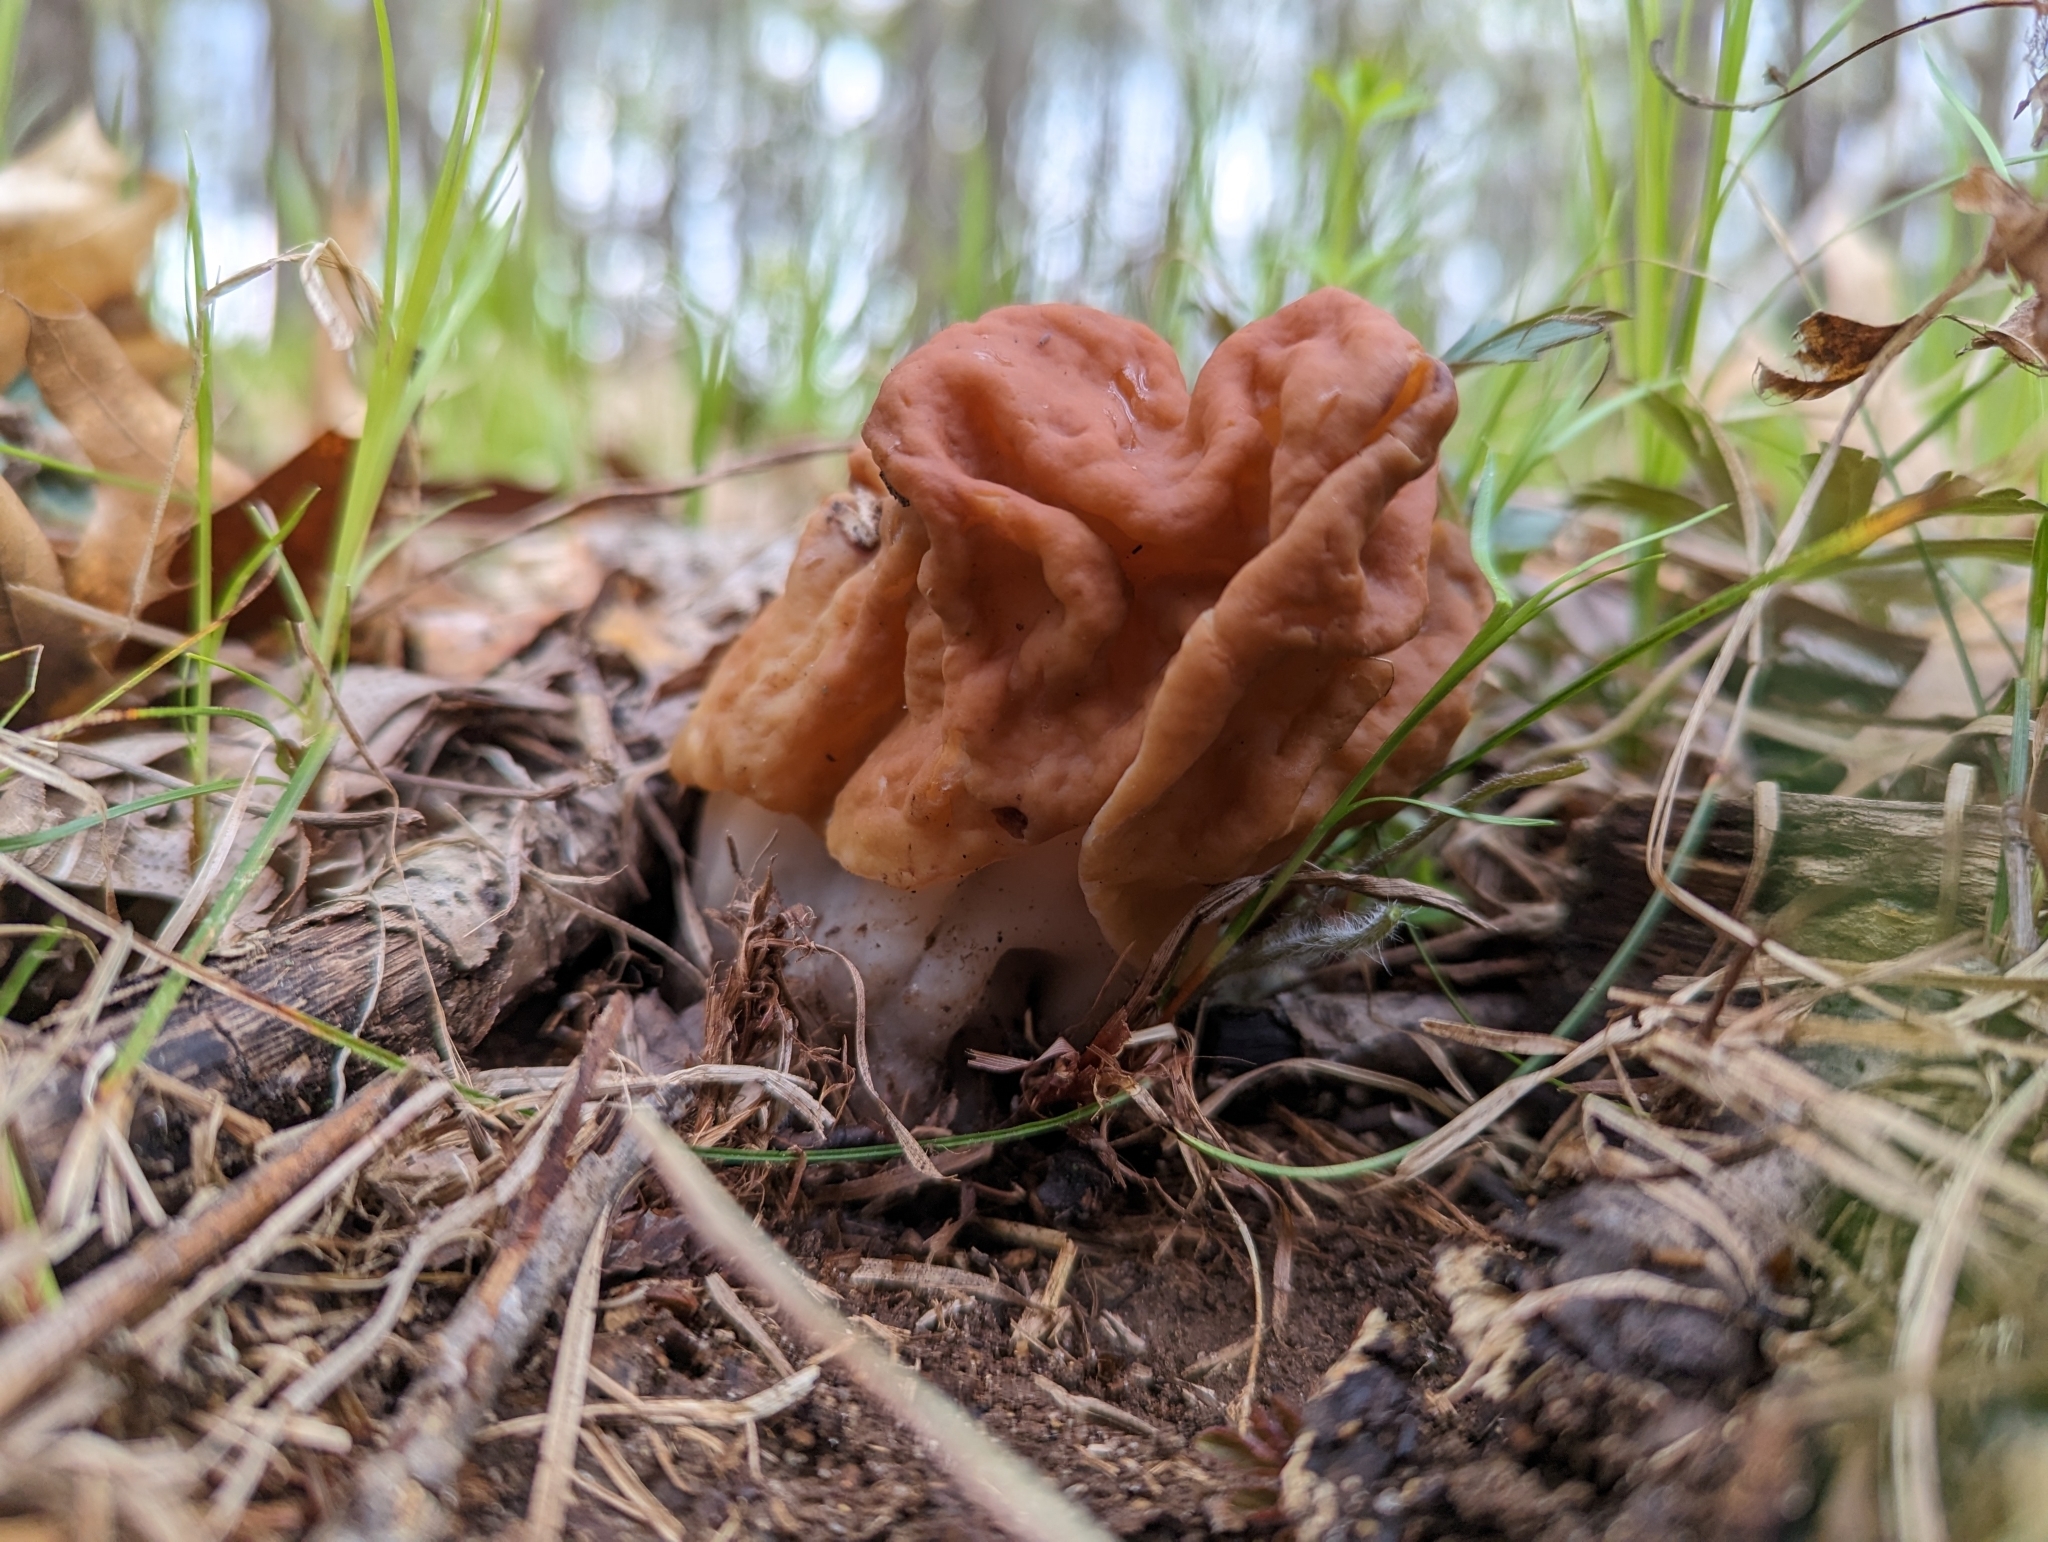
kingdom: Fungi
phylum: Ascomycota
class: Pezizomycetes
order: Pezizales
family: Discinaceae
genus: Gyromitra
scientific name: Gyromitra korfii
